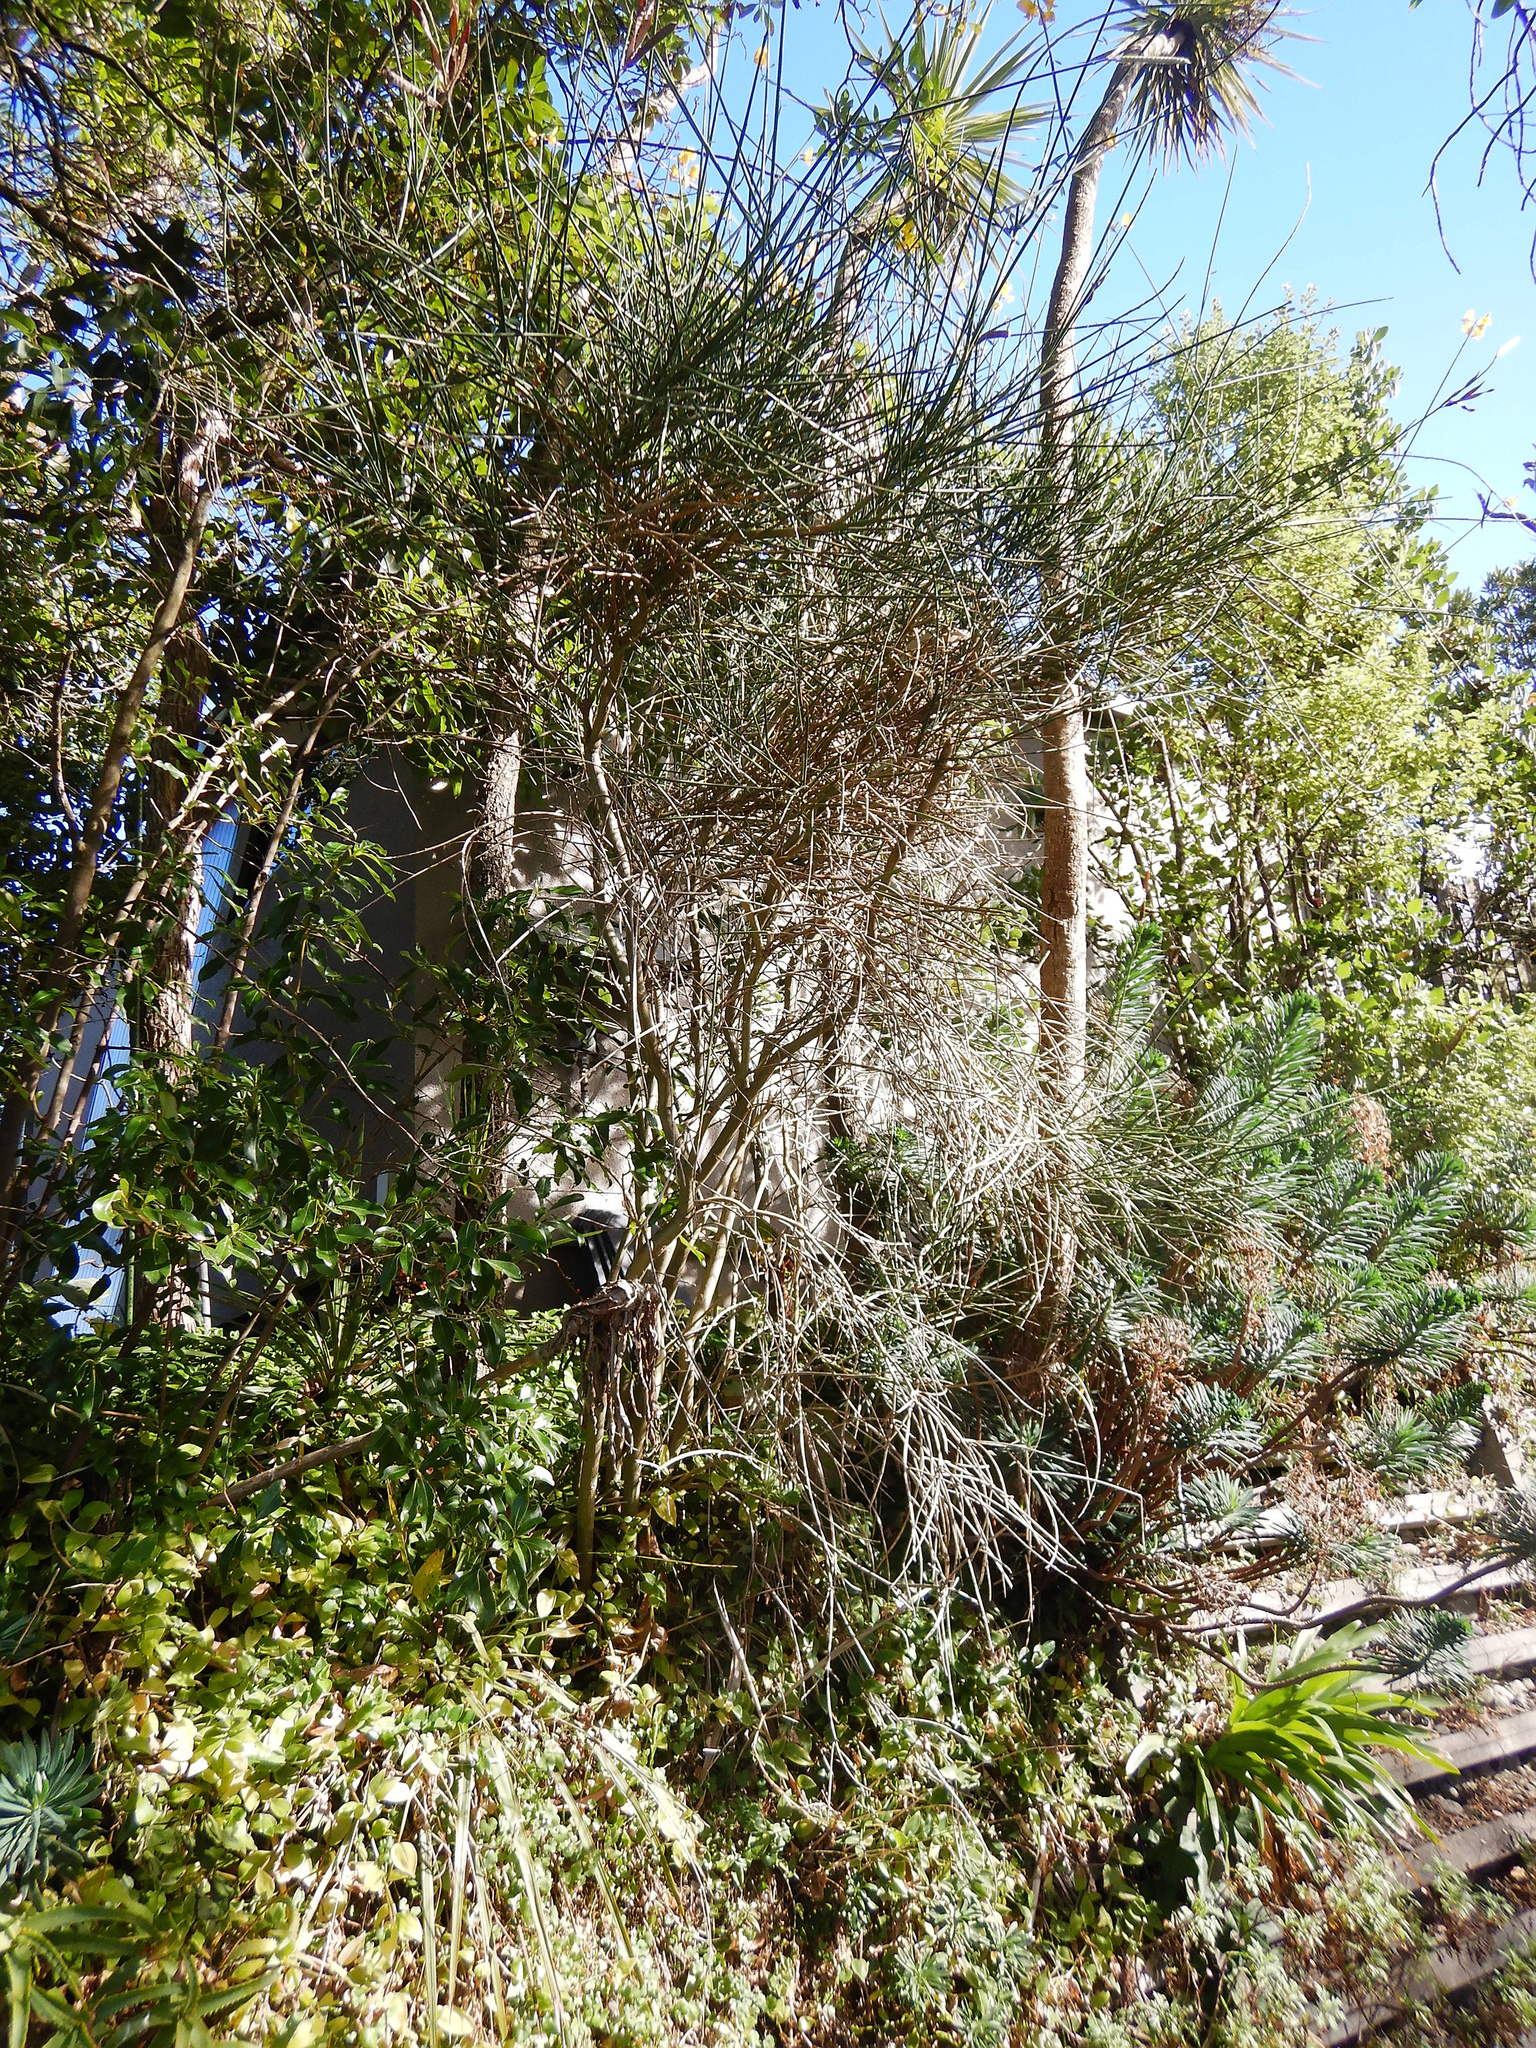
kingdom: Plantae
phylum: Tracheophyta
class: Magnoliopsida
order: Fabales
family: Fabaceae
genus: Spartium
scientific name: Spartium junceum
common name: Spanish broom
